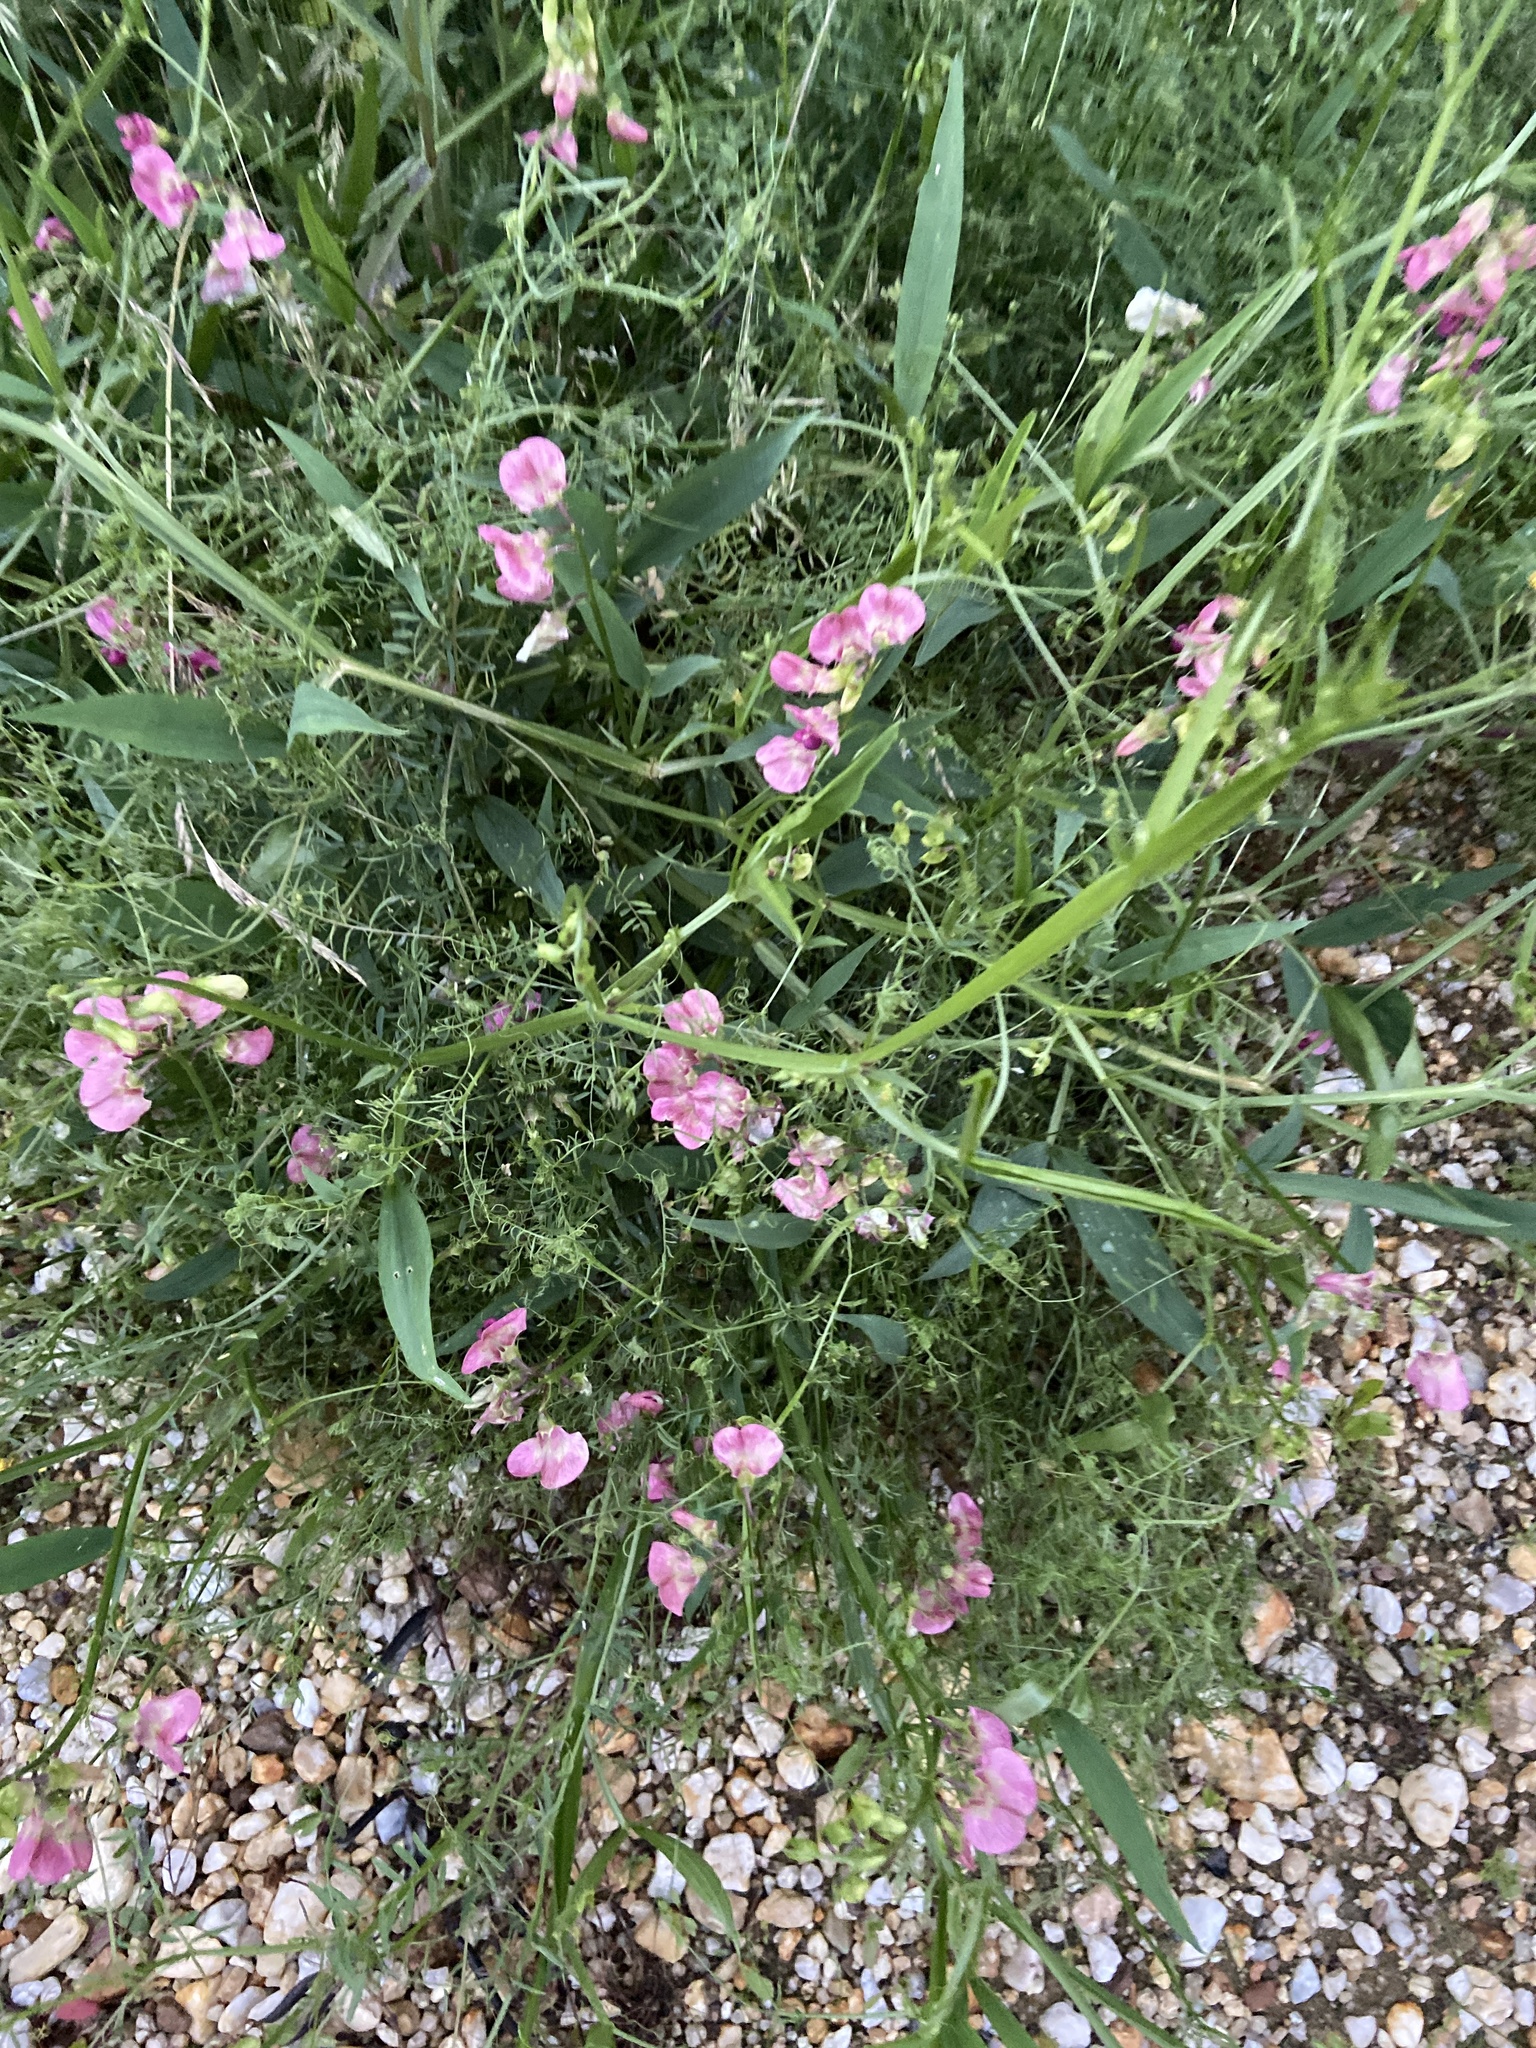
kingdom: Plantae
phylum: Tracheophyta
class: Magnoliopsida
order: Fabales
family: Fabaceae
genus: Lathyrus
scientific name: Lathyrus sylvestris
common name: Flat pea
